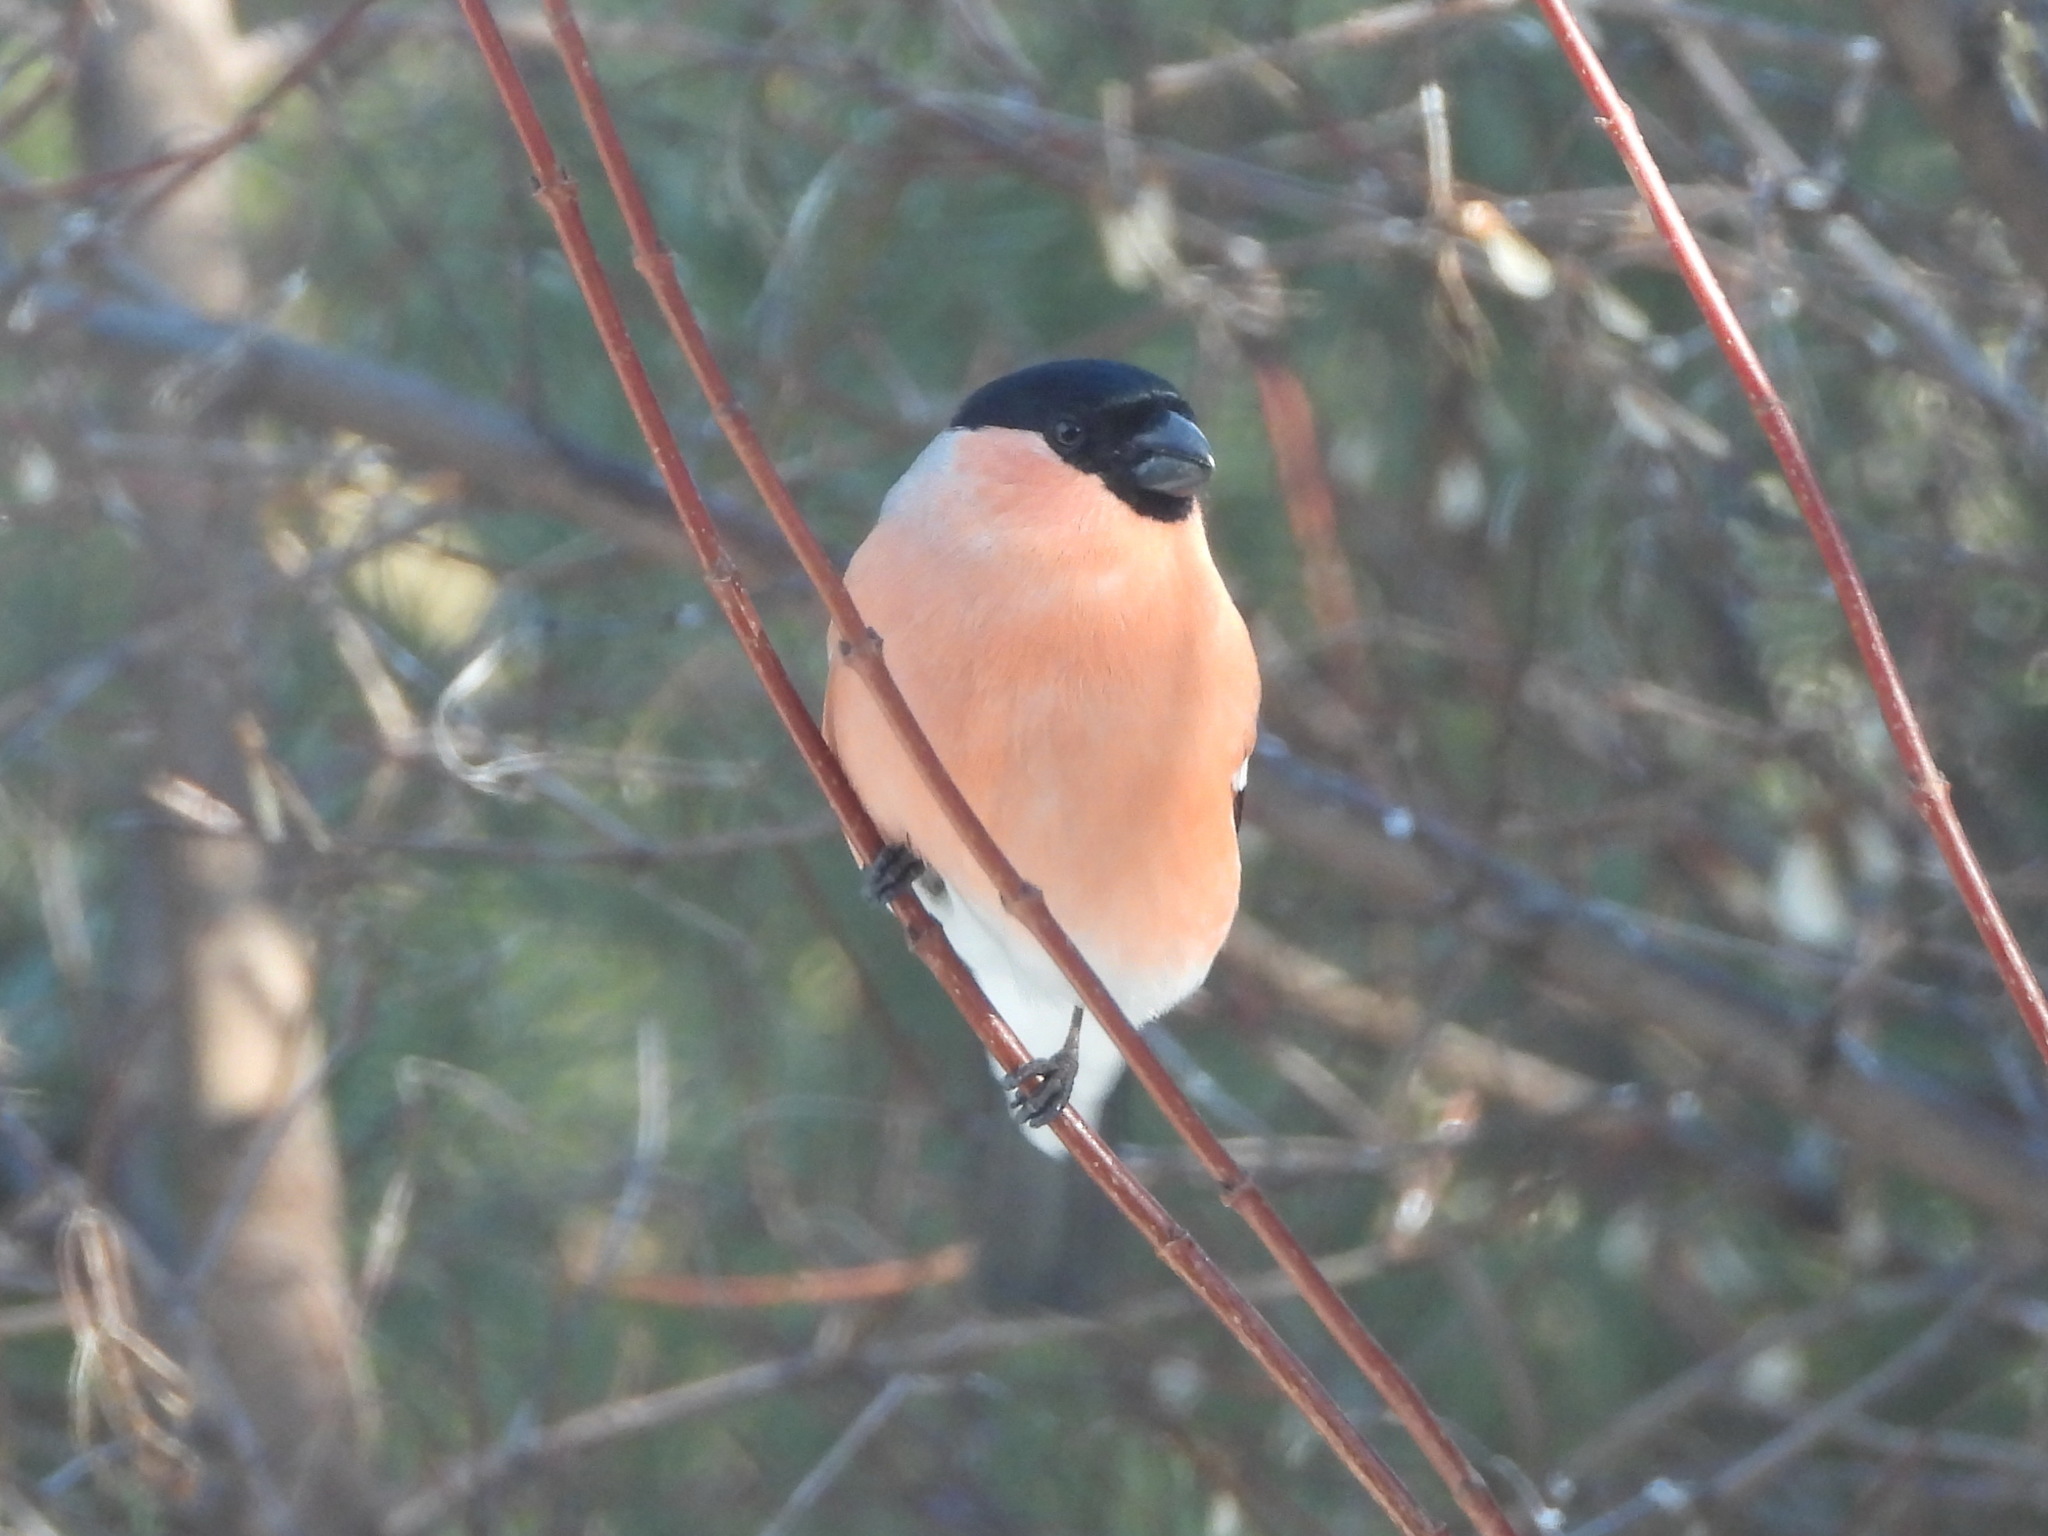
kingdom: Animalia
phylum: Chordata
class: Aves
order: Passeriformes
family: Fringillidae
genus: Pyrrhula
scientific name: Pyrrhula pyrrhula
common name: Eurasian bullfinch
